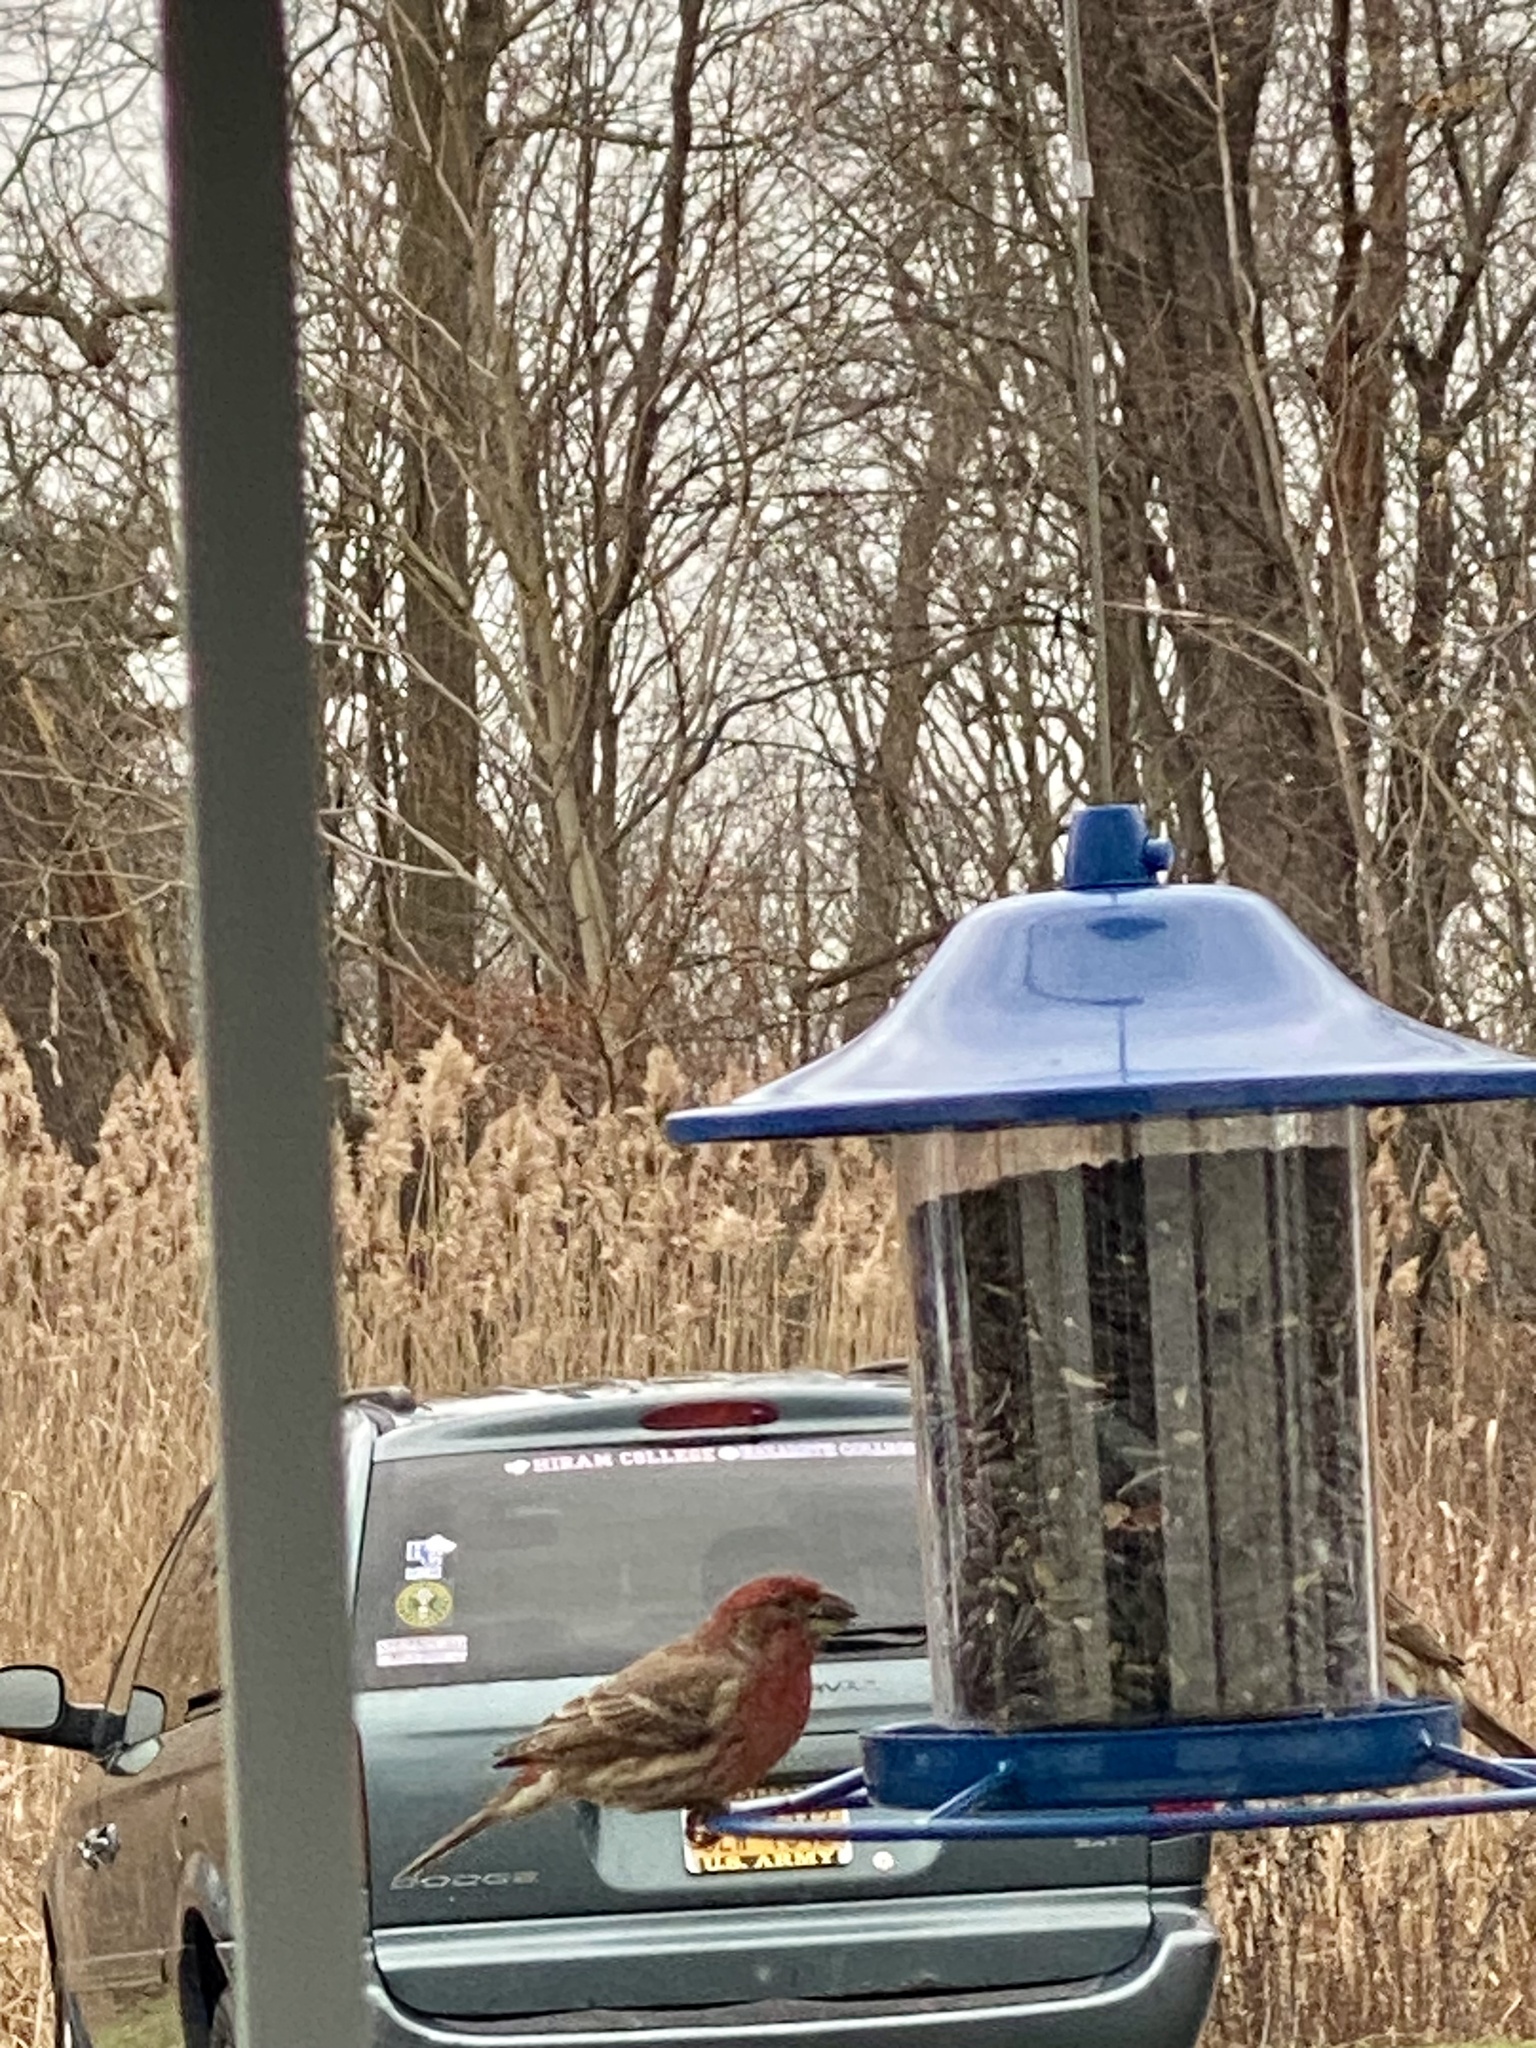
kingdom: Animalia
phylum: Chordata
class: Aves
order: Passeriformes
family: Fringillidae
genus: Haemorhous
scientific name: Haemorhous mexicanus
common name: House finch
